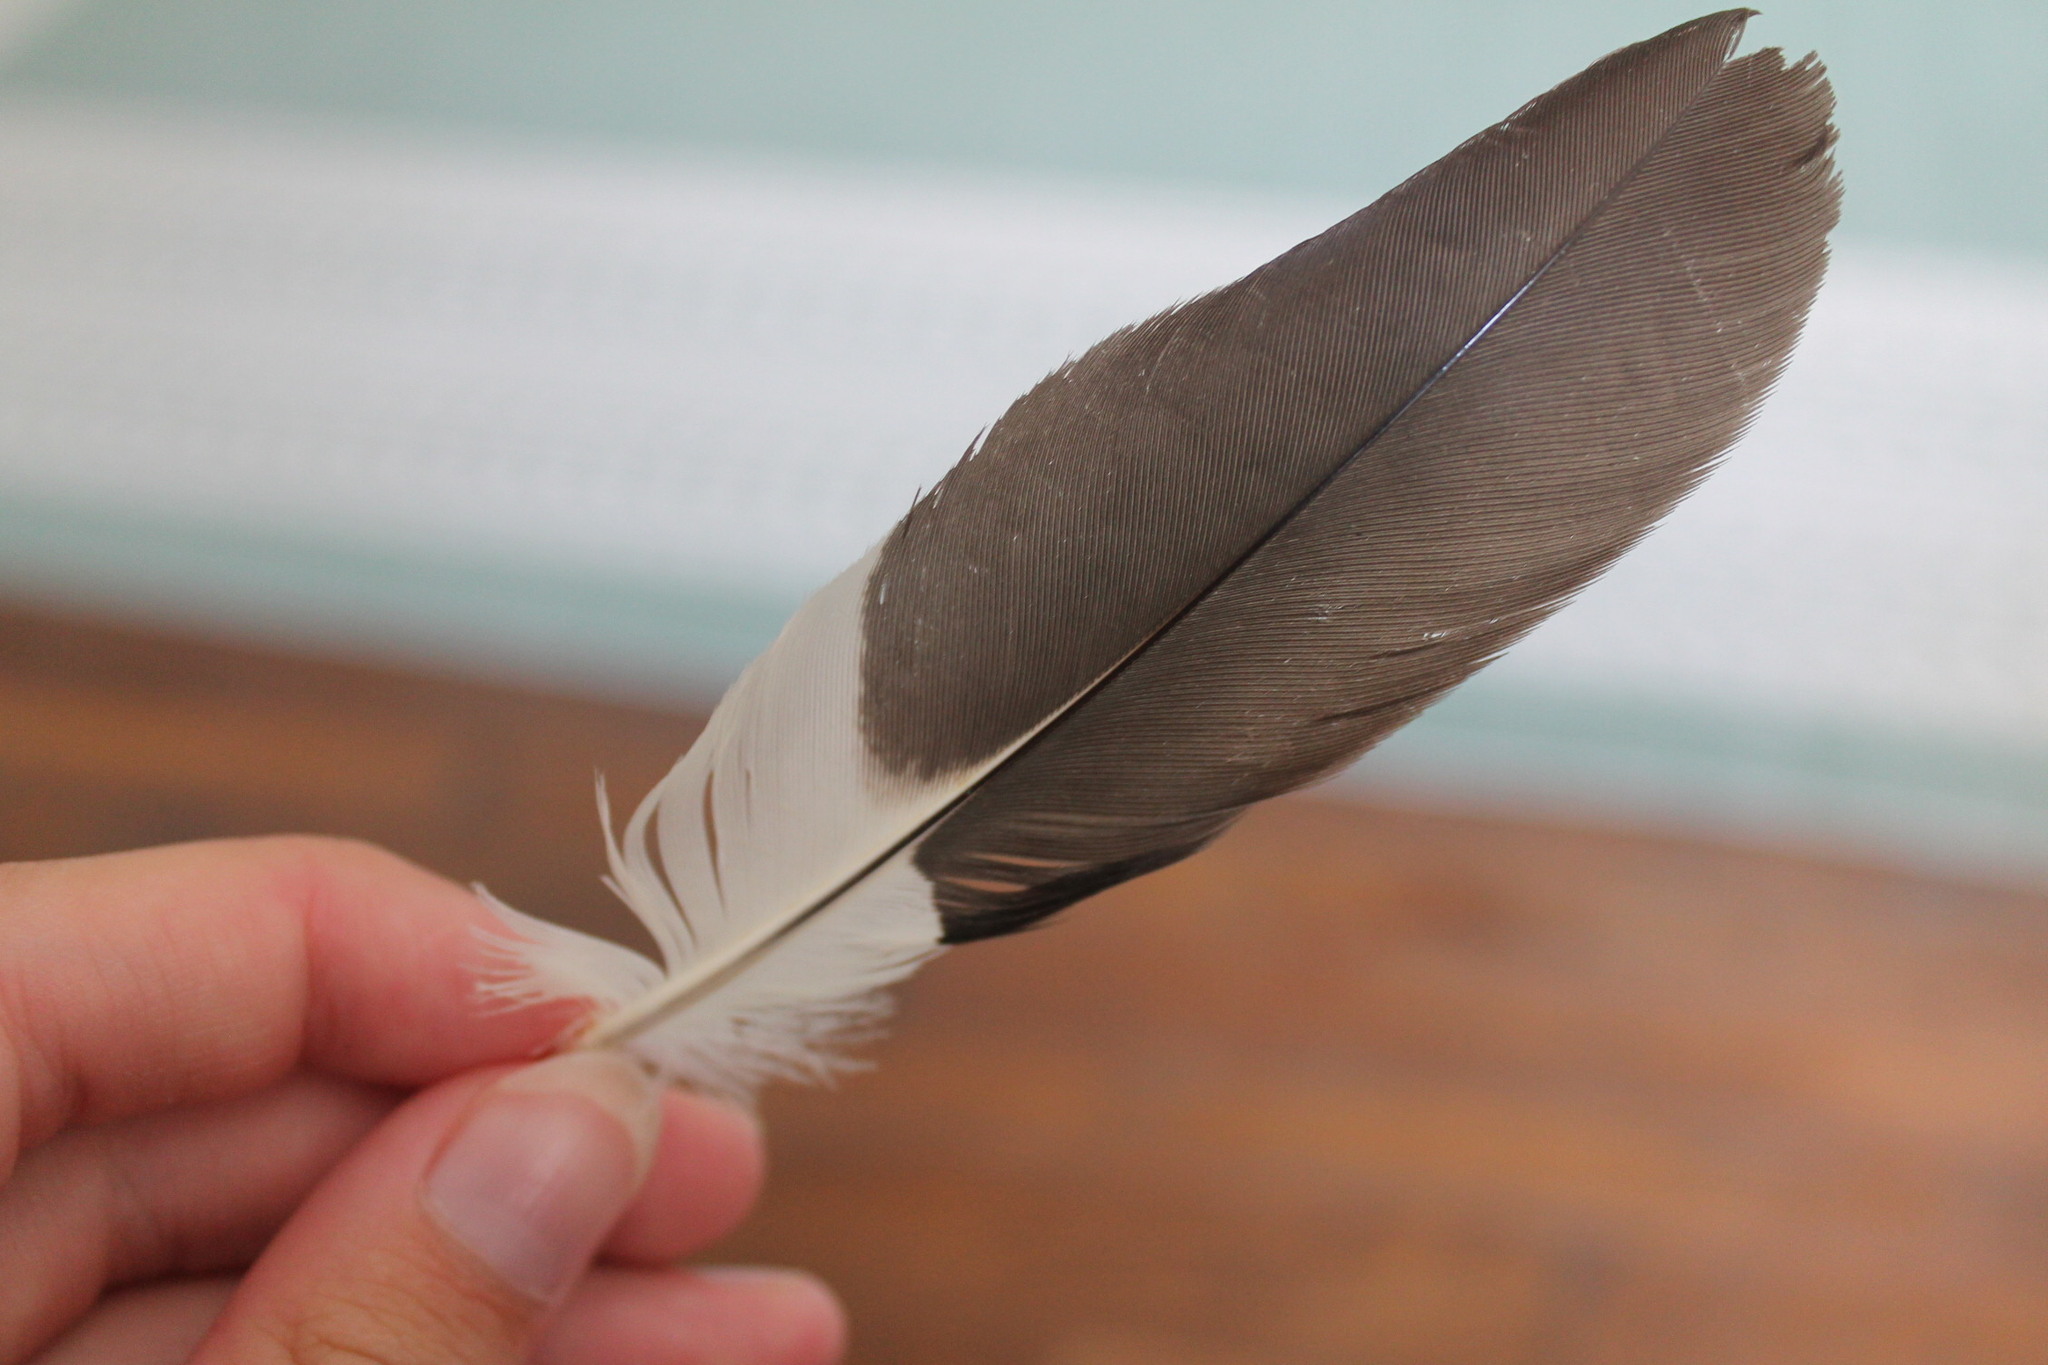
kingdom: Animalia
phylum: Chordata
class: Aves
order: Piciformes
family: Picidae
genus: Dryocopus
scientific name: Dryocopus pileatus
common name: Pileated woodpecker
